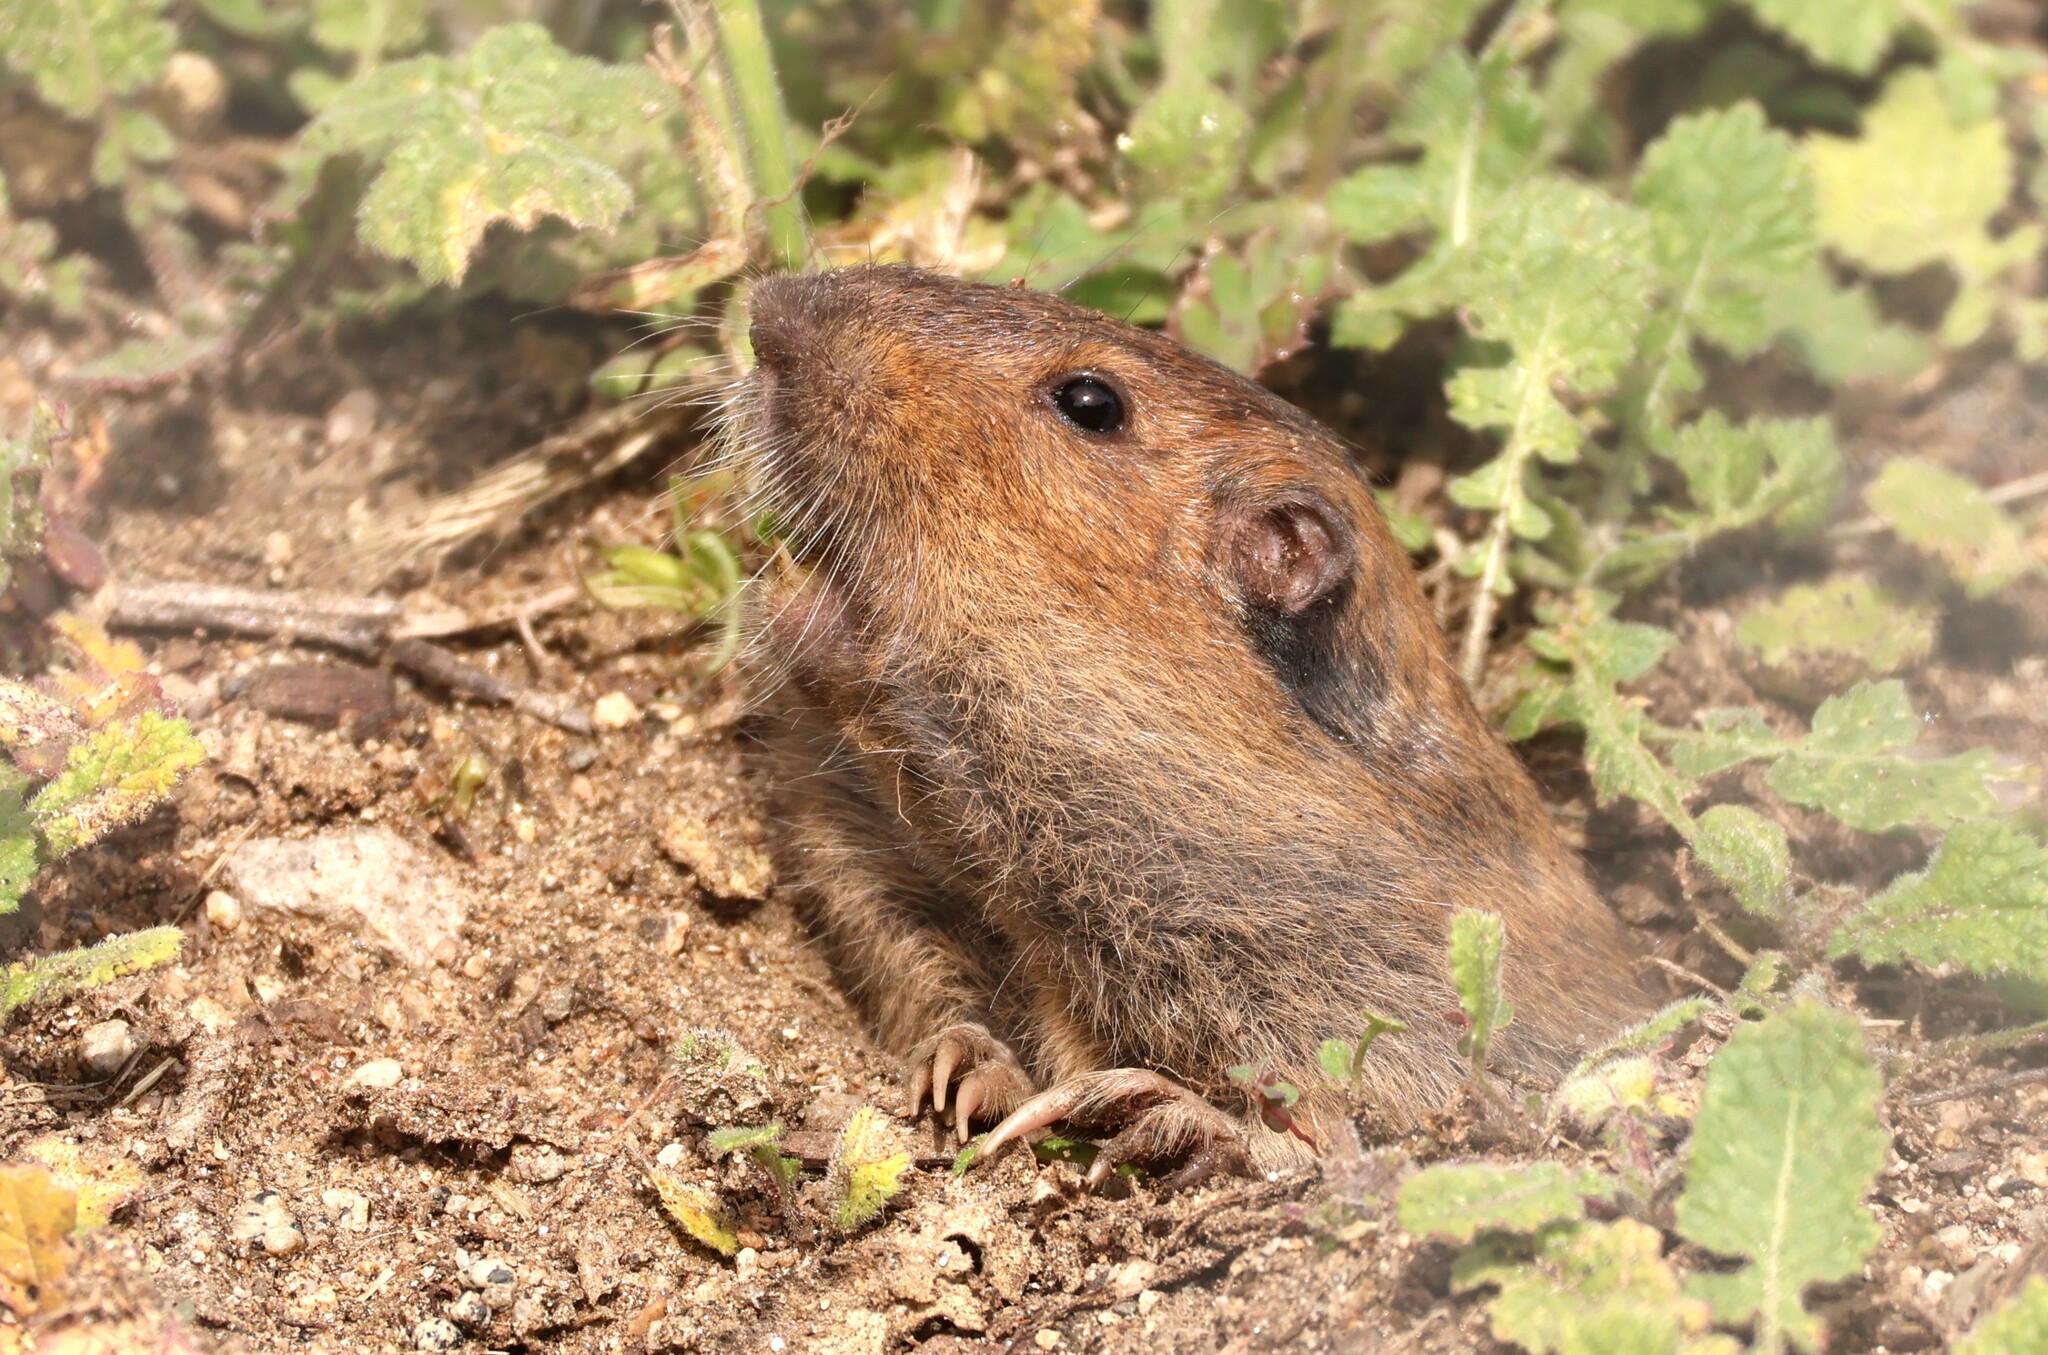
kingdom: Animalia
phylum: Chordata
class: Mammalia
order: Rodentia
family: Geomyidae
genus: Thomomys
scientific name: Thomomys bottae
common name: Botta's pocket gopher
